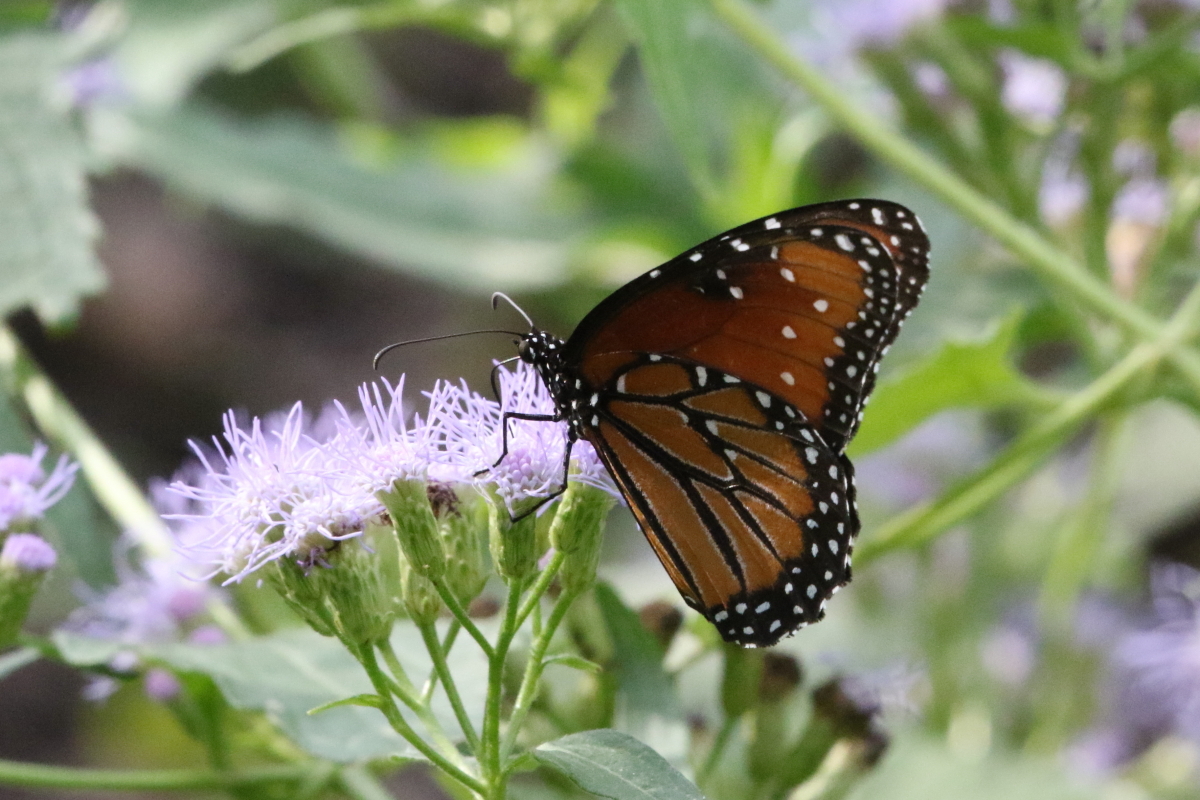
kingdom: Animalia
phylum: Arthropoda
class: Insecta
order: Lepidoptera
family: Nymphalidae
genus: Danaus
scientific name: Danaus gilippus
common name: Queen
